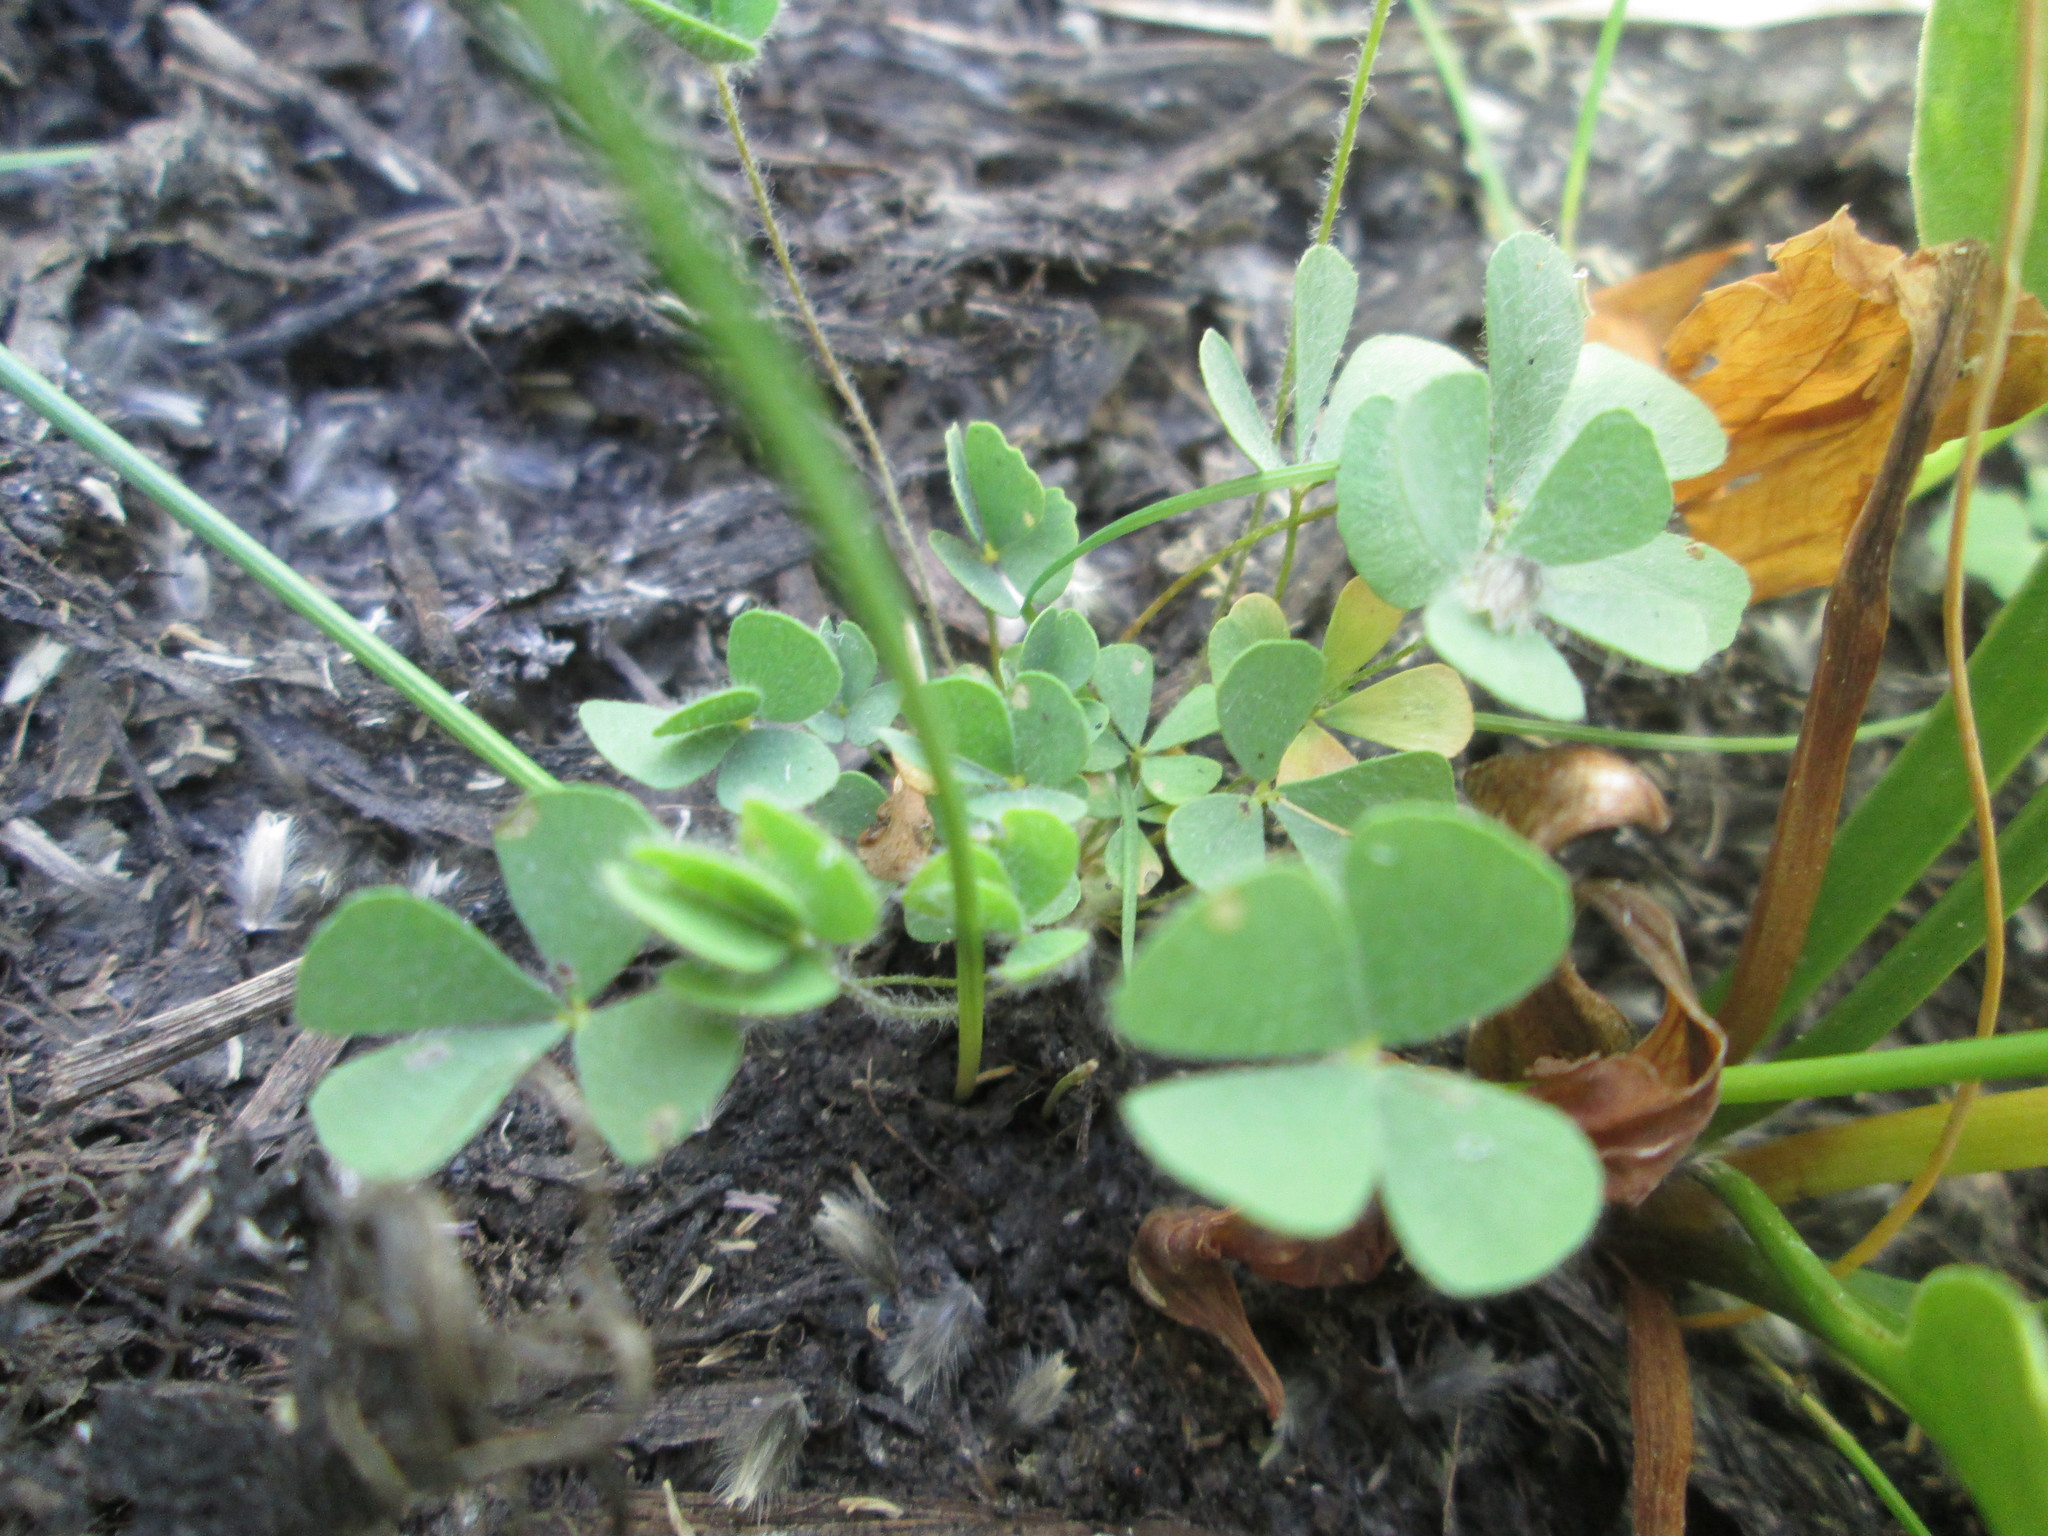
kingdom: Plantae
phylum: Tracheophyta
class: Polypodiopsida
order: Salviniales
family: Marsileaceae
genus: Marsilea
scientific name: Marsilea vestita
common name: Hooked-pepperwort
